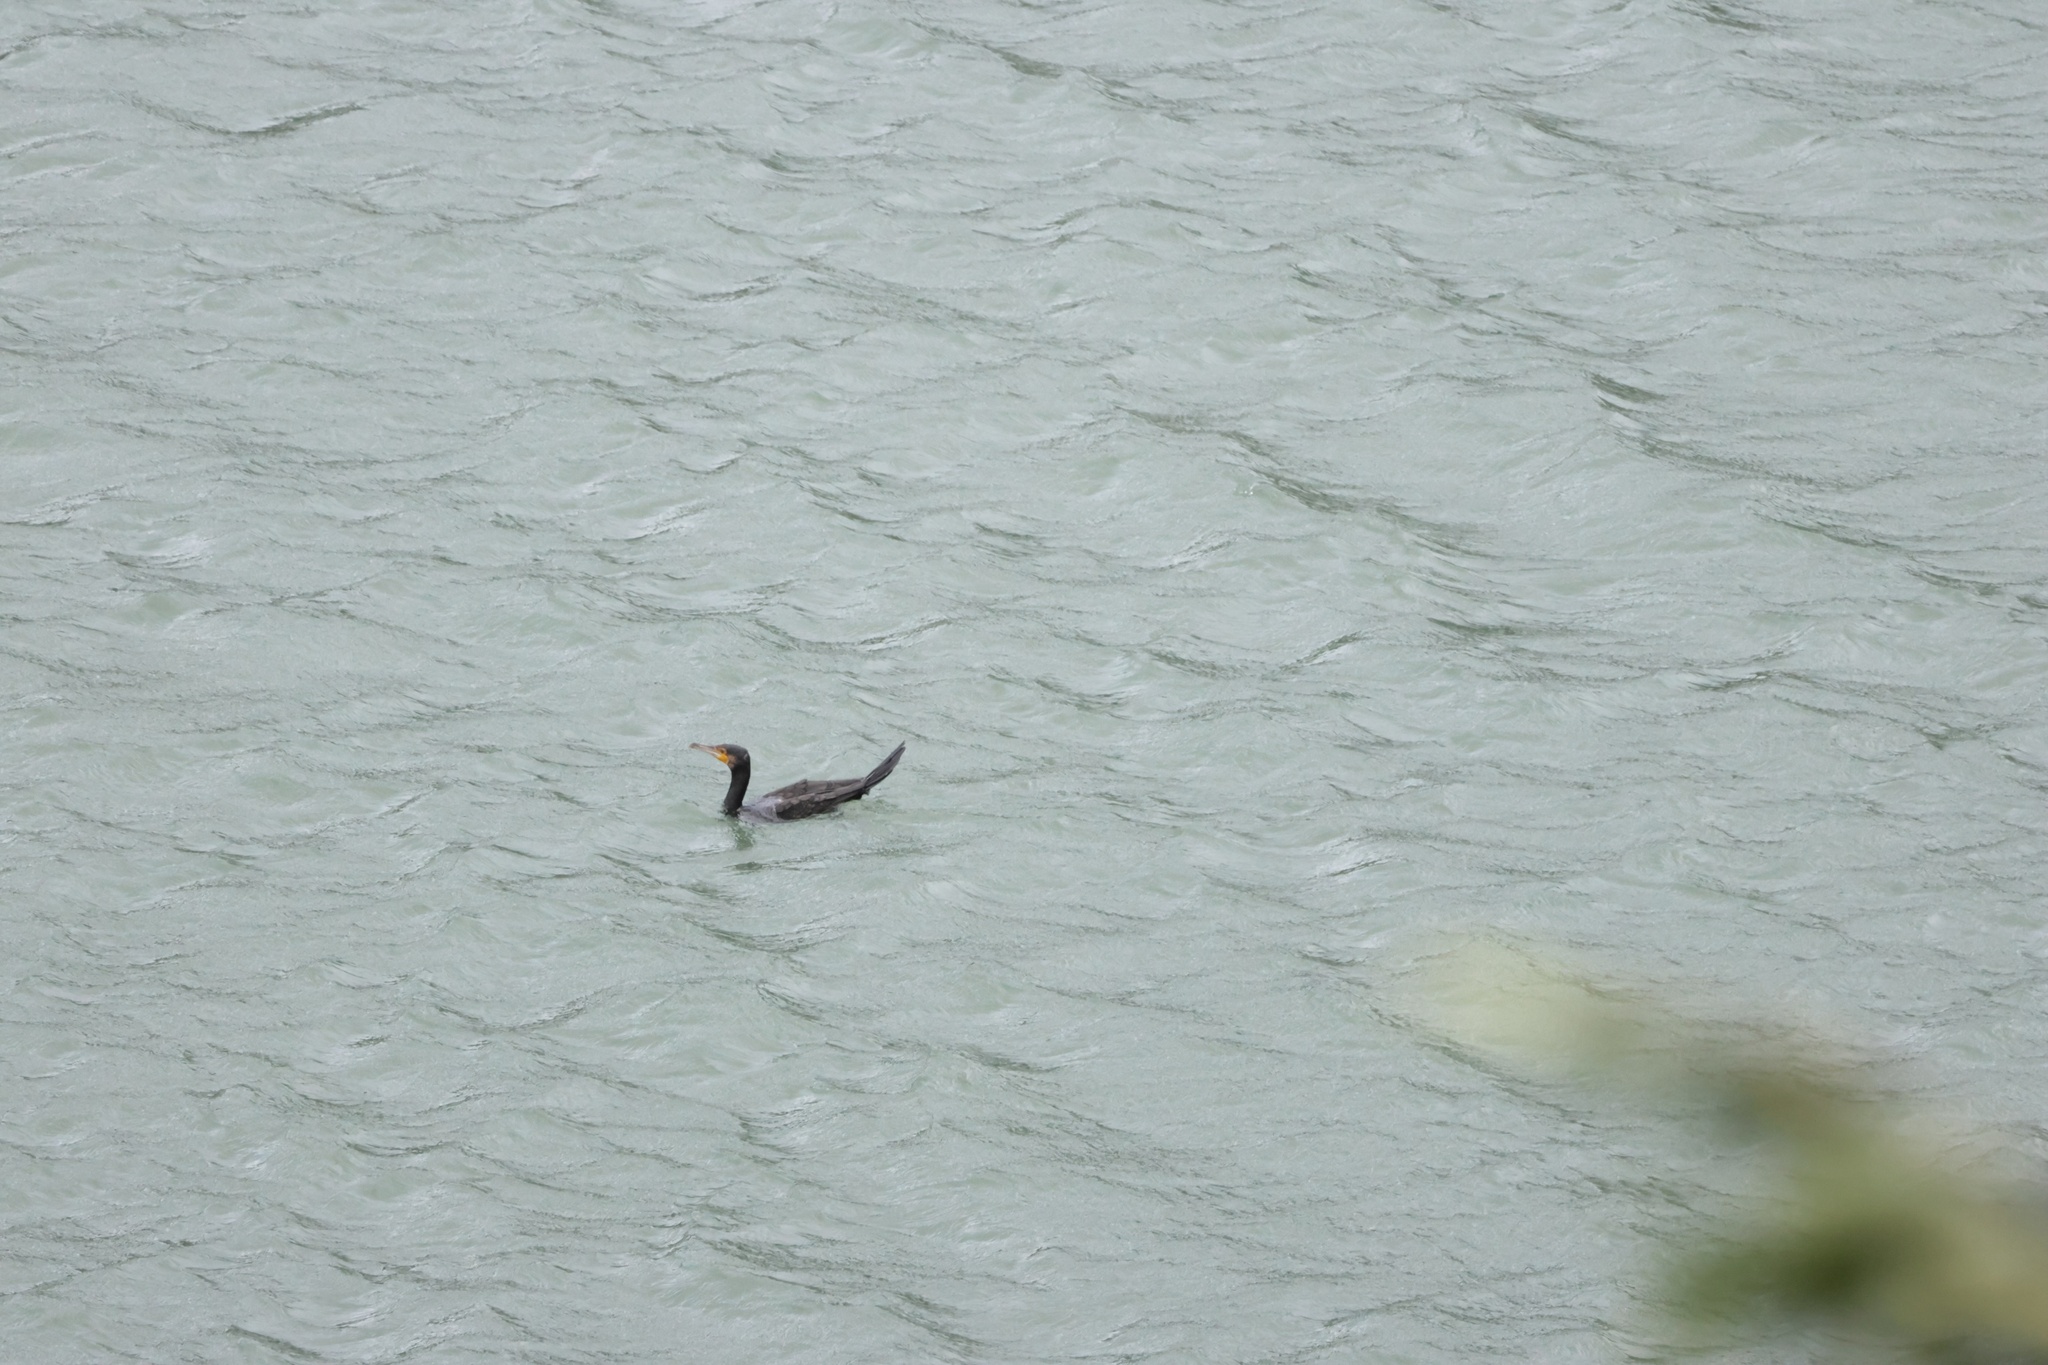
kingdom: Animalia
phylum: Chordata
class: Aves
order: Suliformes
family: Phalacrocoracidae
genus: Phalacrocorax
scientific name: Phalacrocorax carbo
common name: Great cormorant
